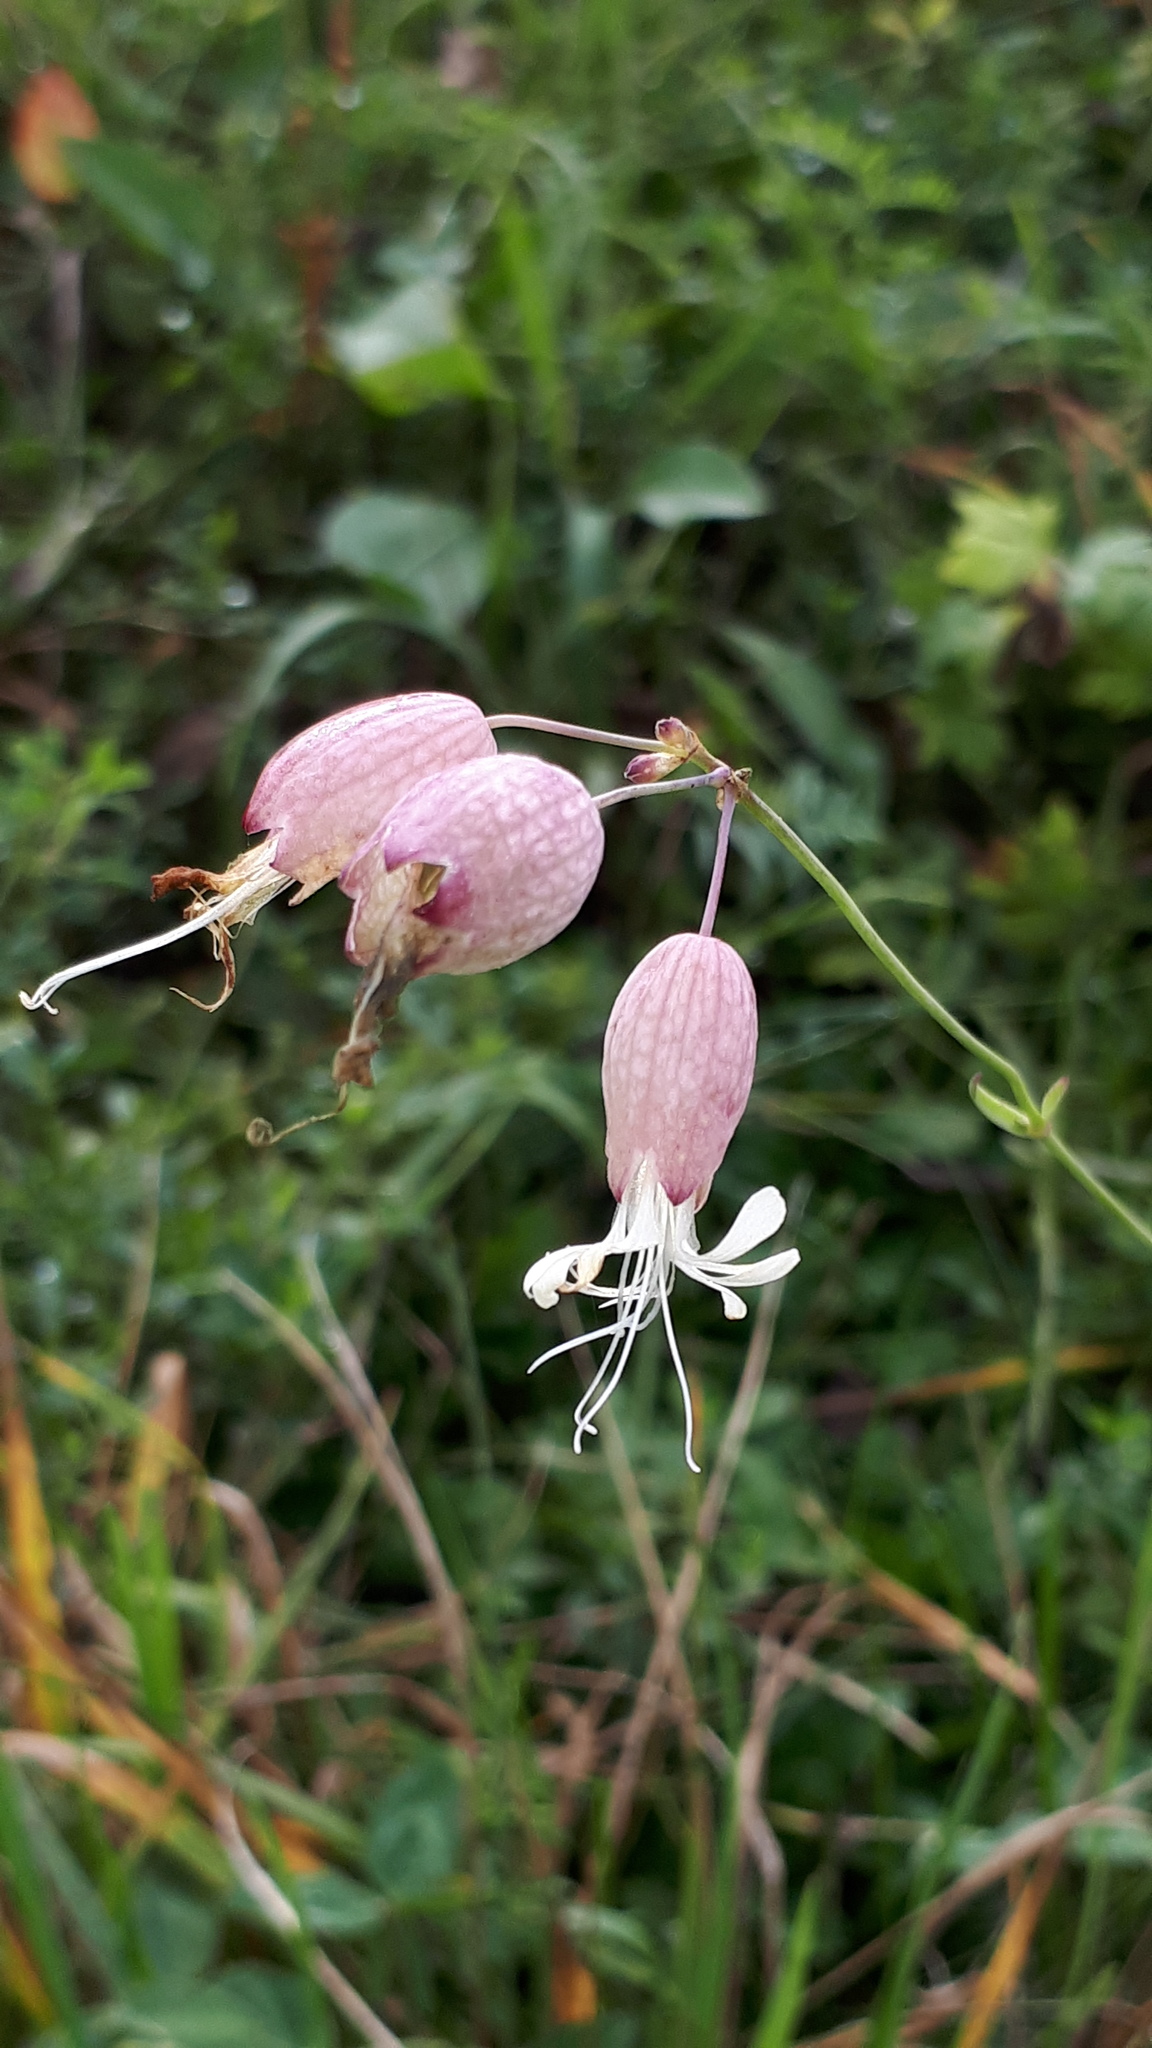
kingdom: Plantae
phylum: Tracheophyta
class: Magnoliopsida
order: Caryophyllales
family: Caryophyllaceae
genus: Silene
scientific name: Silene vulgaris
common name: Bladder campion
